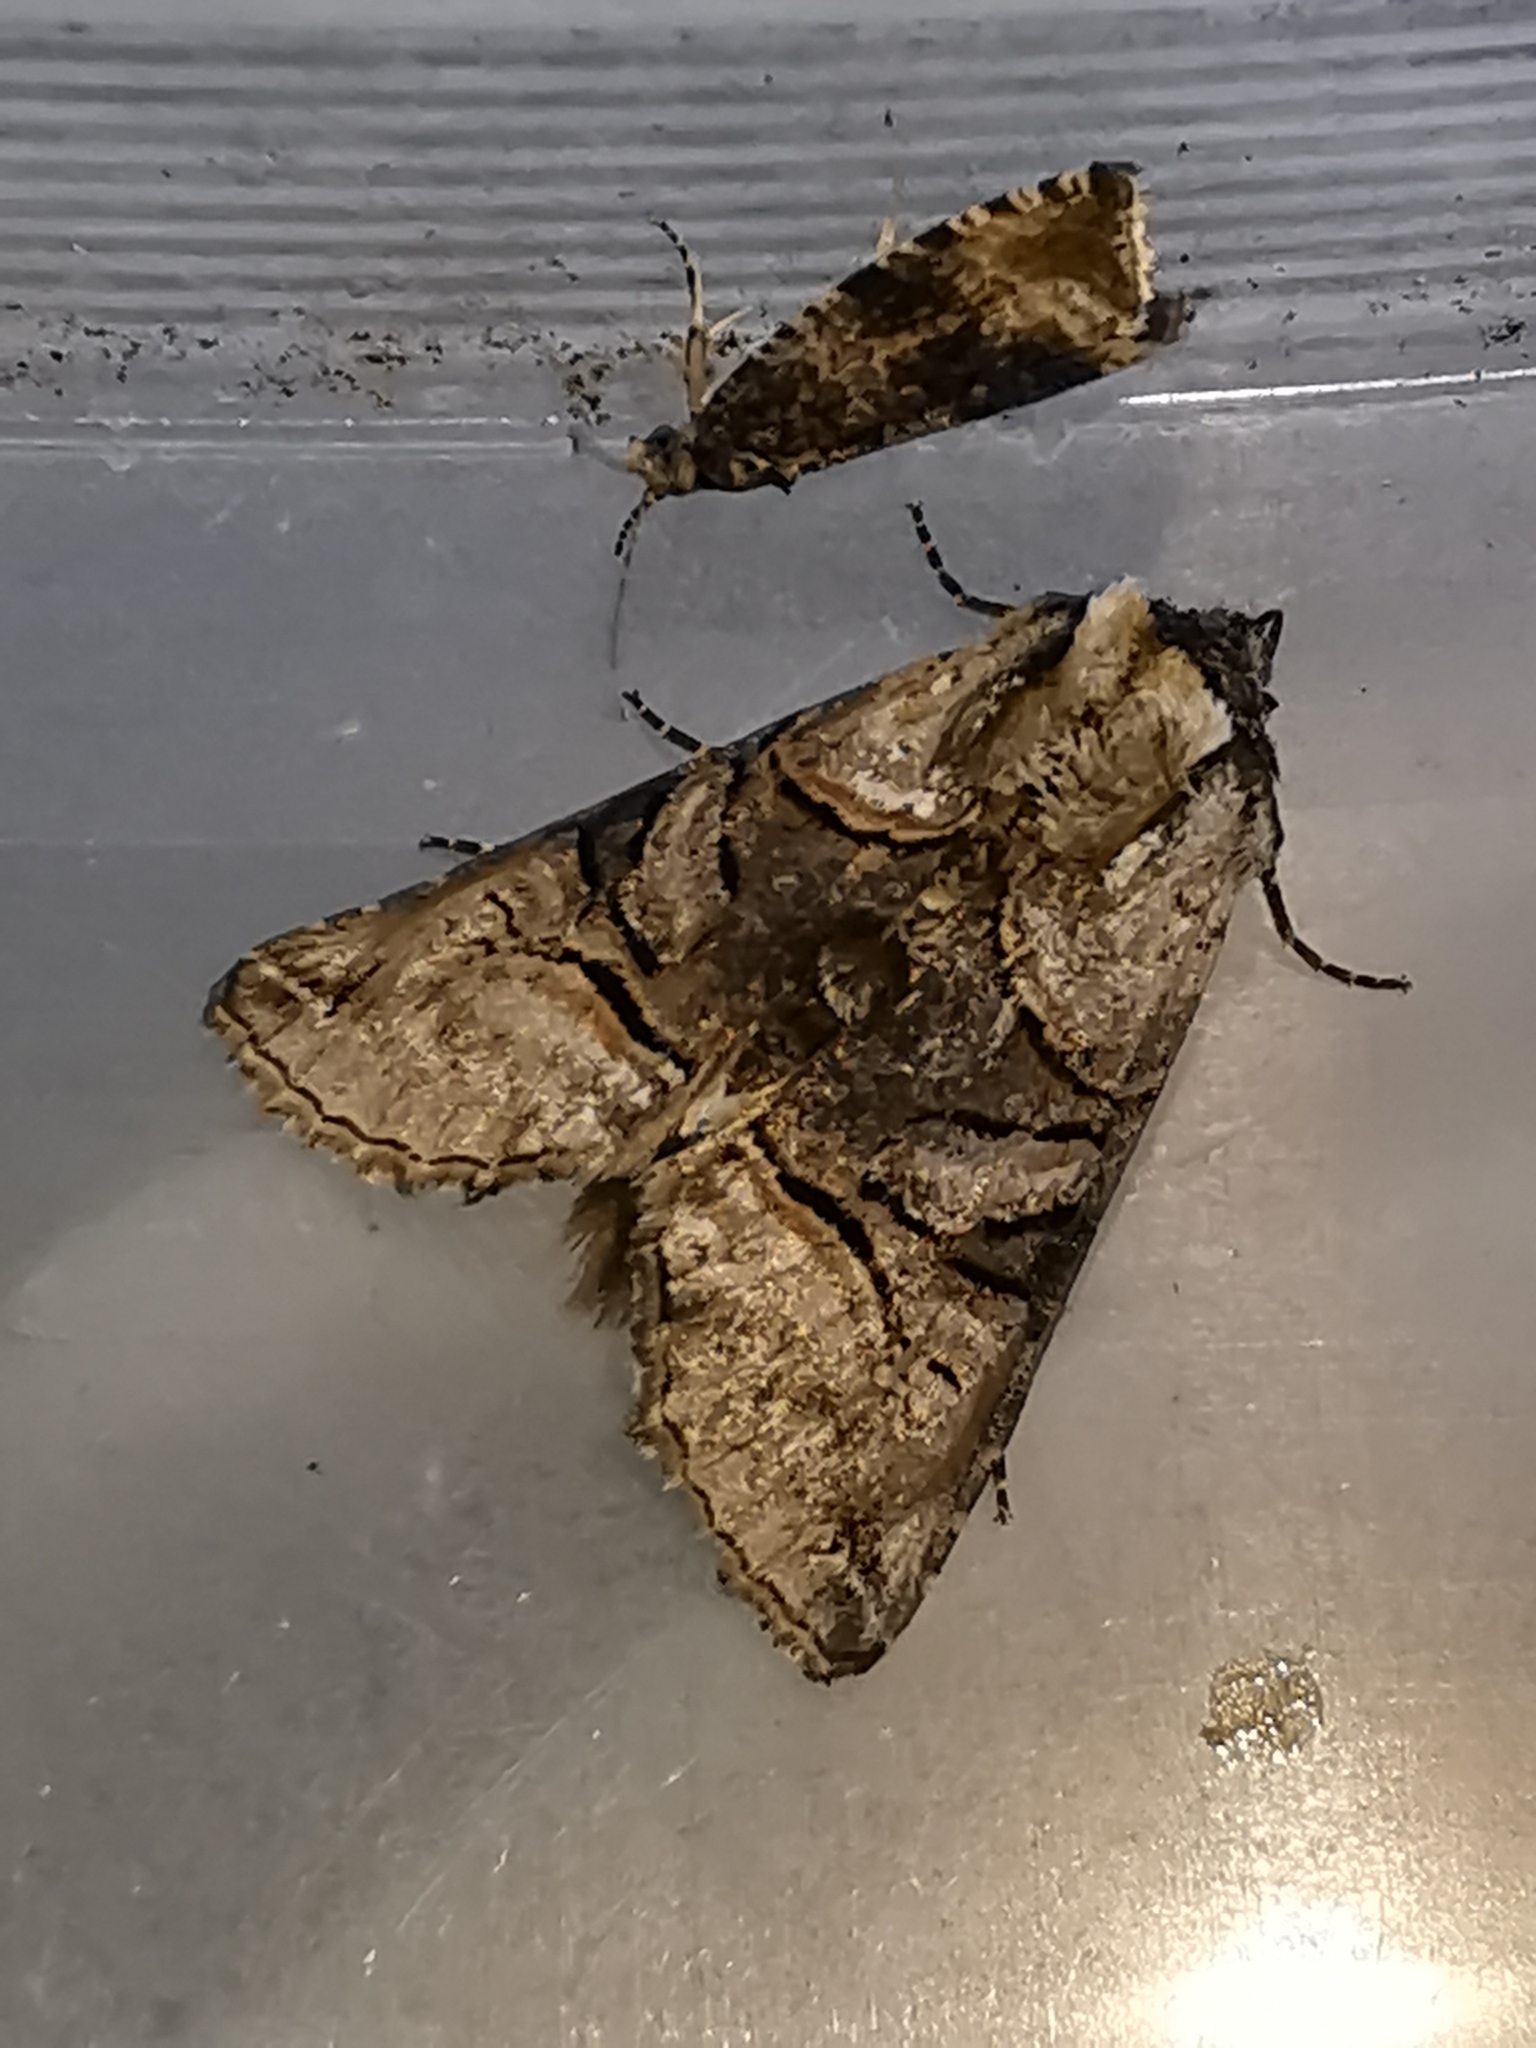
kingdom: Animalia
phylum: Arthropoda
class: Insecta
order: Lepidoptera
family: Noctuidae
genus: Abrostola
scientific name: Abrostola tripartita
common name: Spectacle
